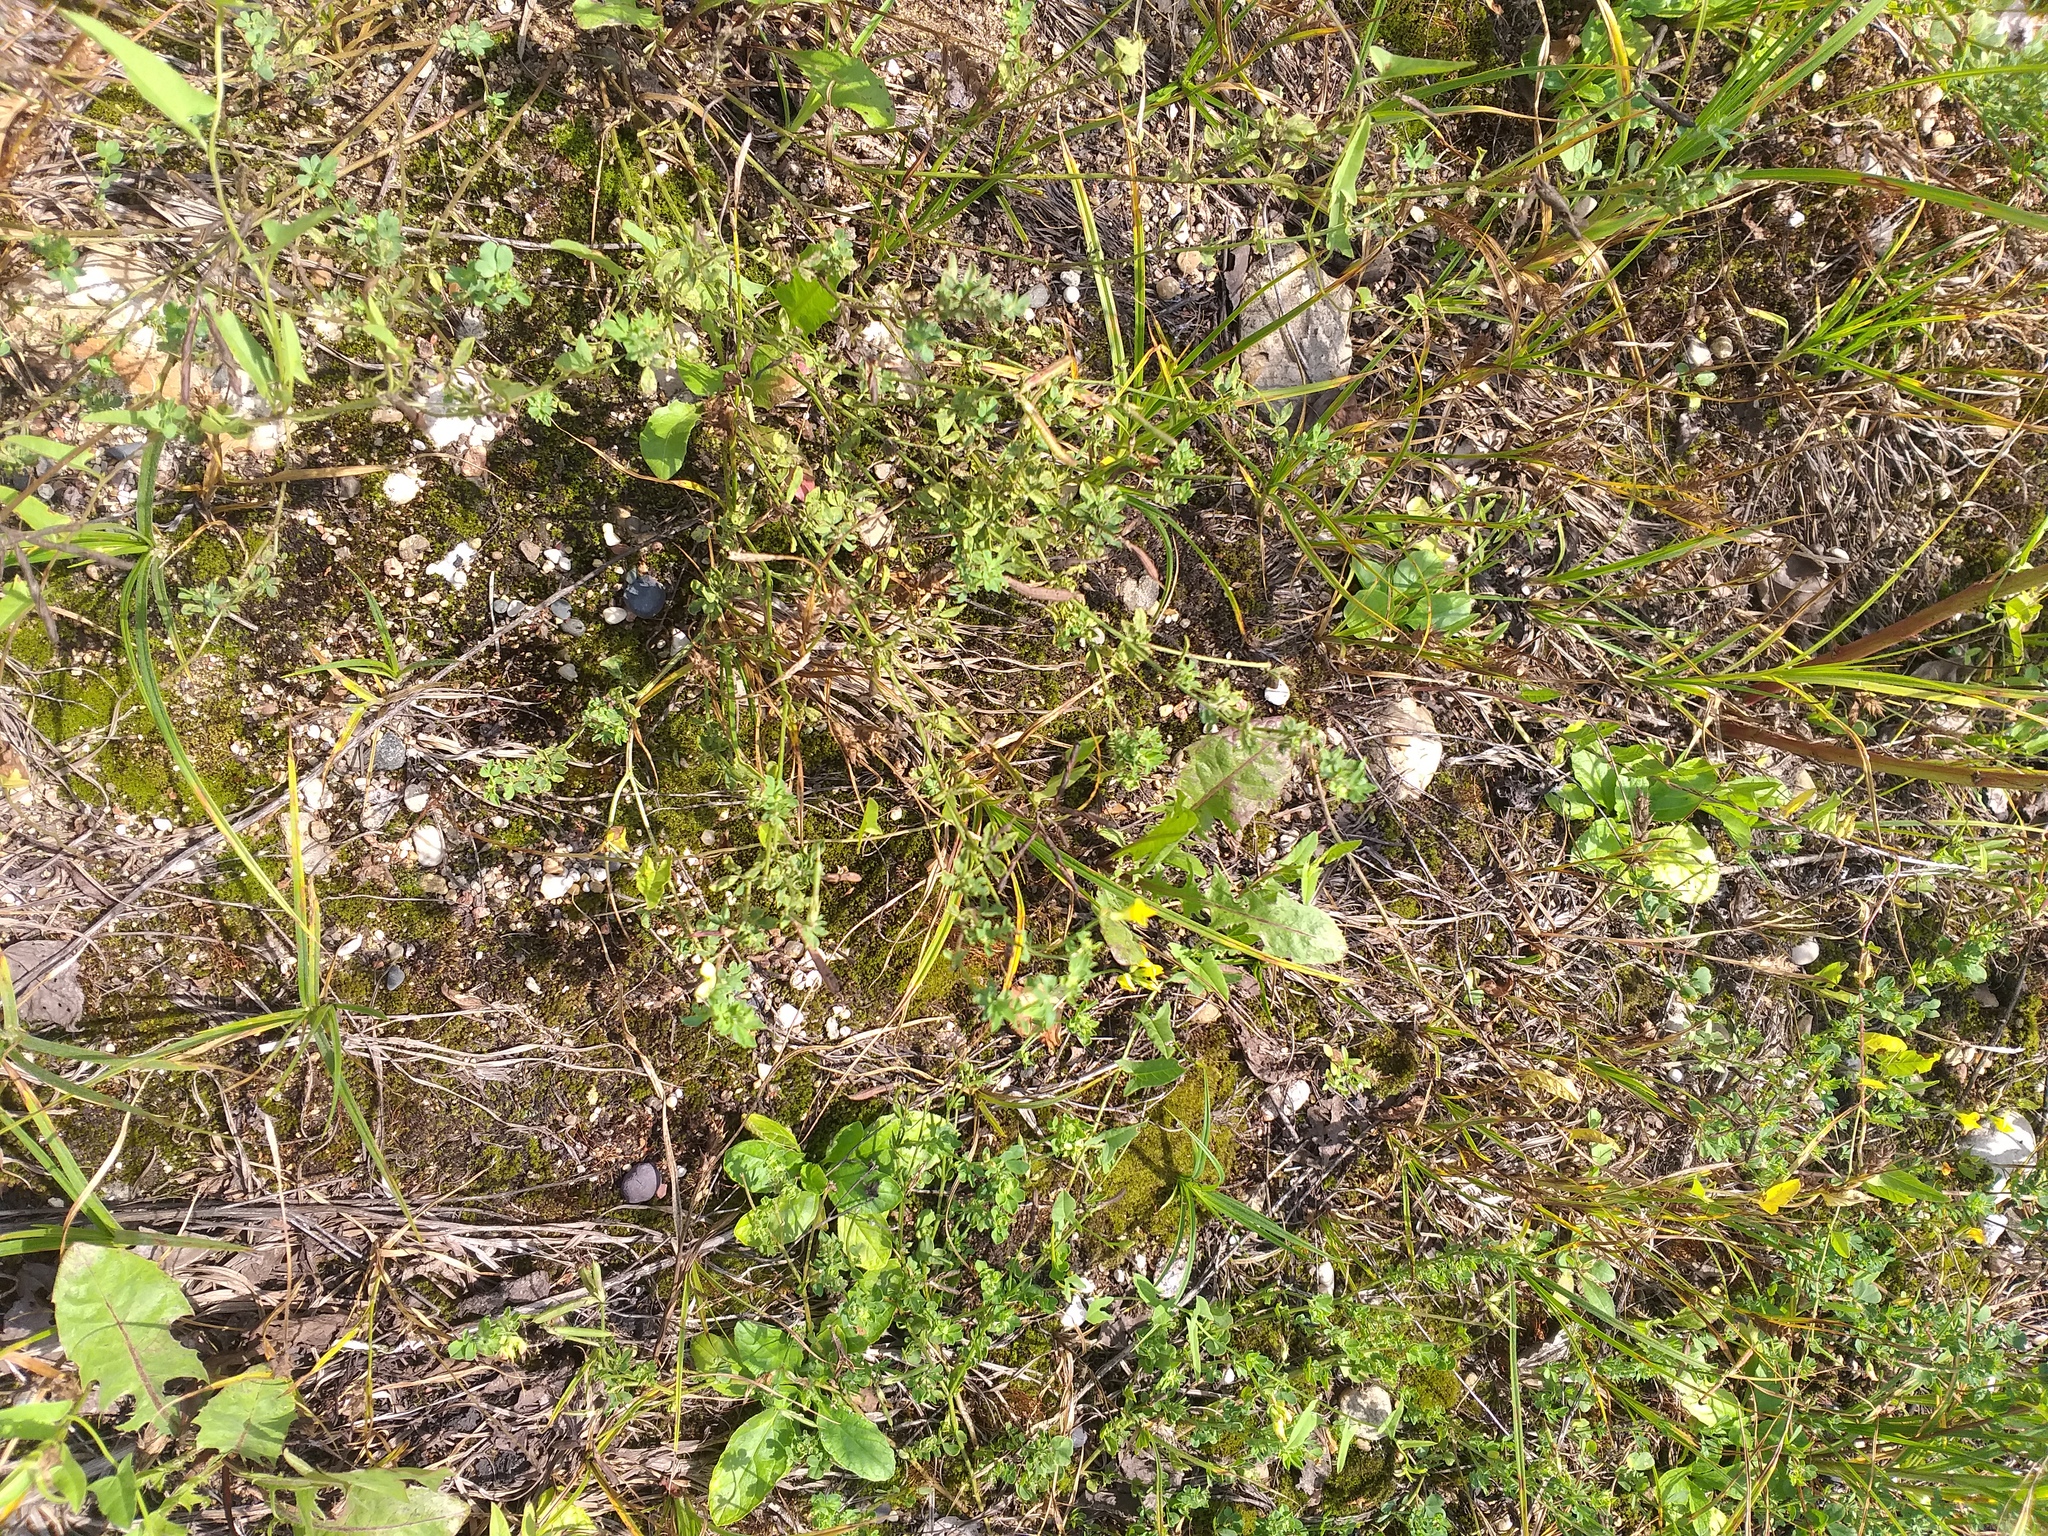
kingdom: Plantae
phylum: Tracheophyta
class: Magnoliopsida
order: Fabales
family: Fabaceae
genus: Lotus
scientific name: Lotus corniculatus
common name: Common bird's-foot-trefoil
